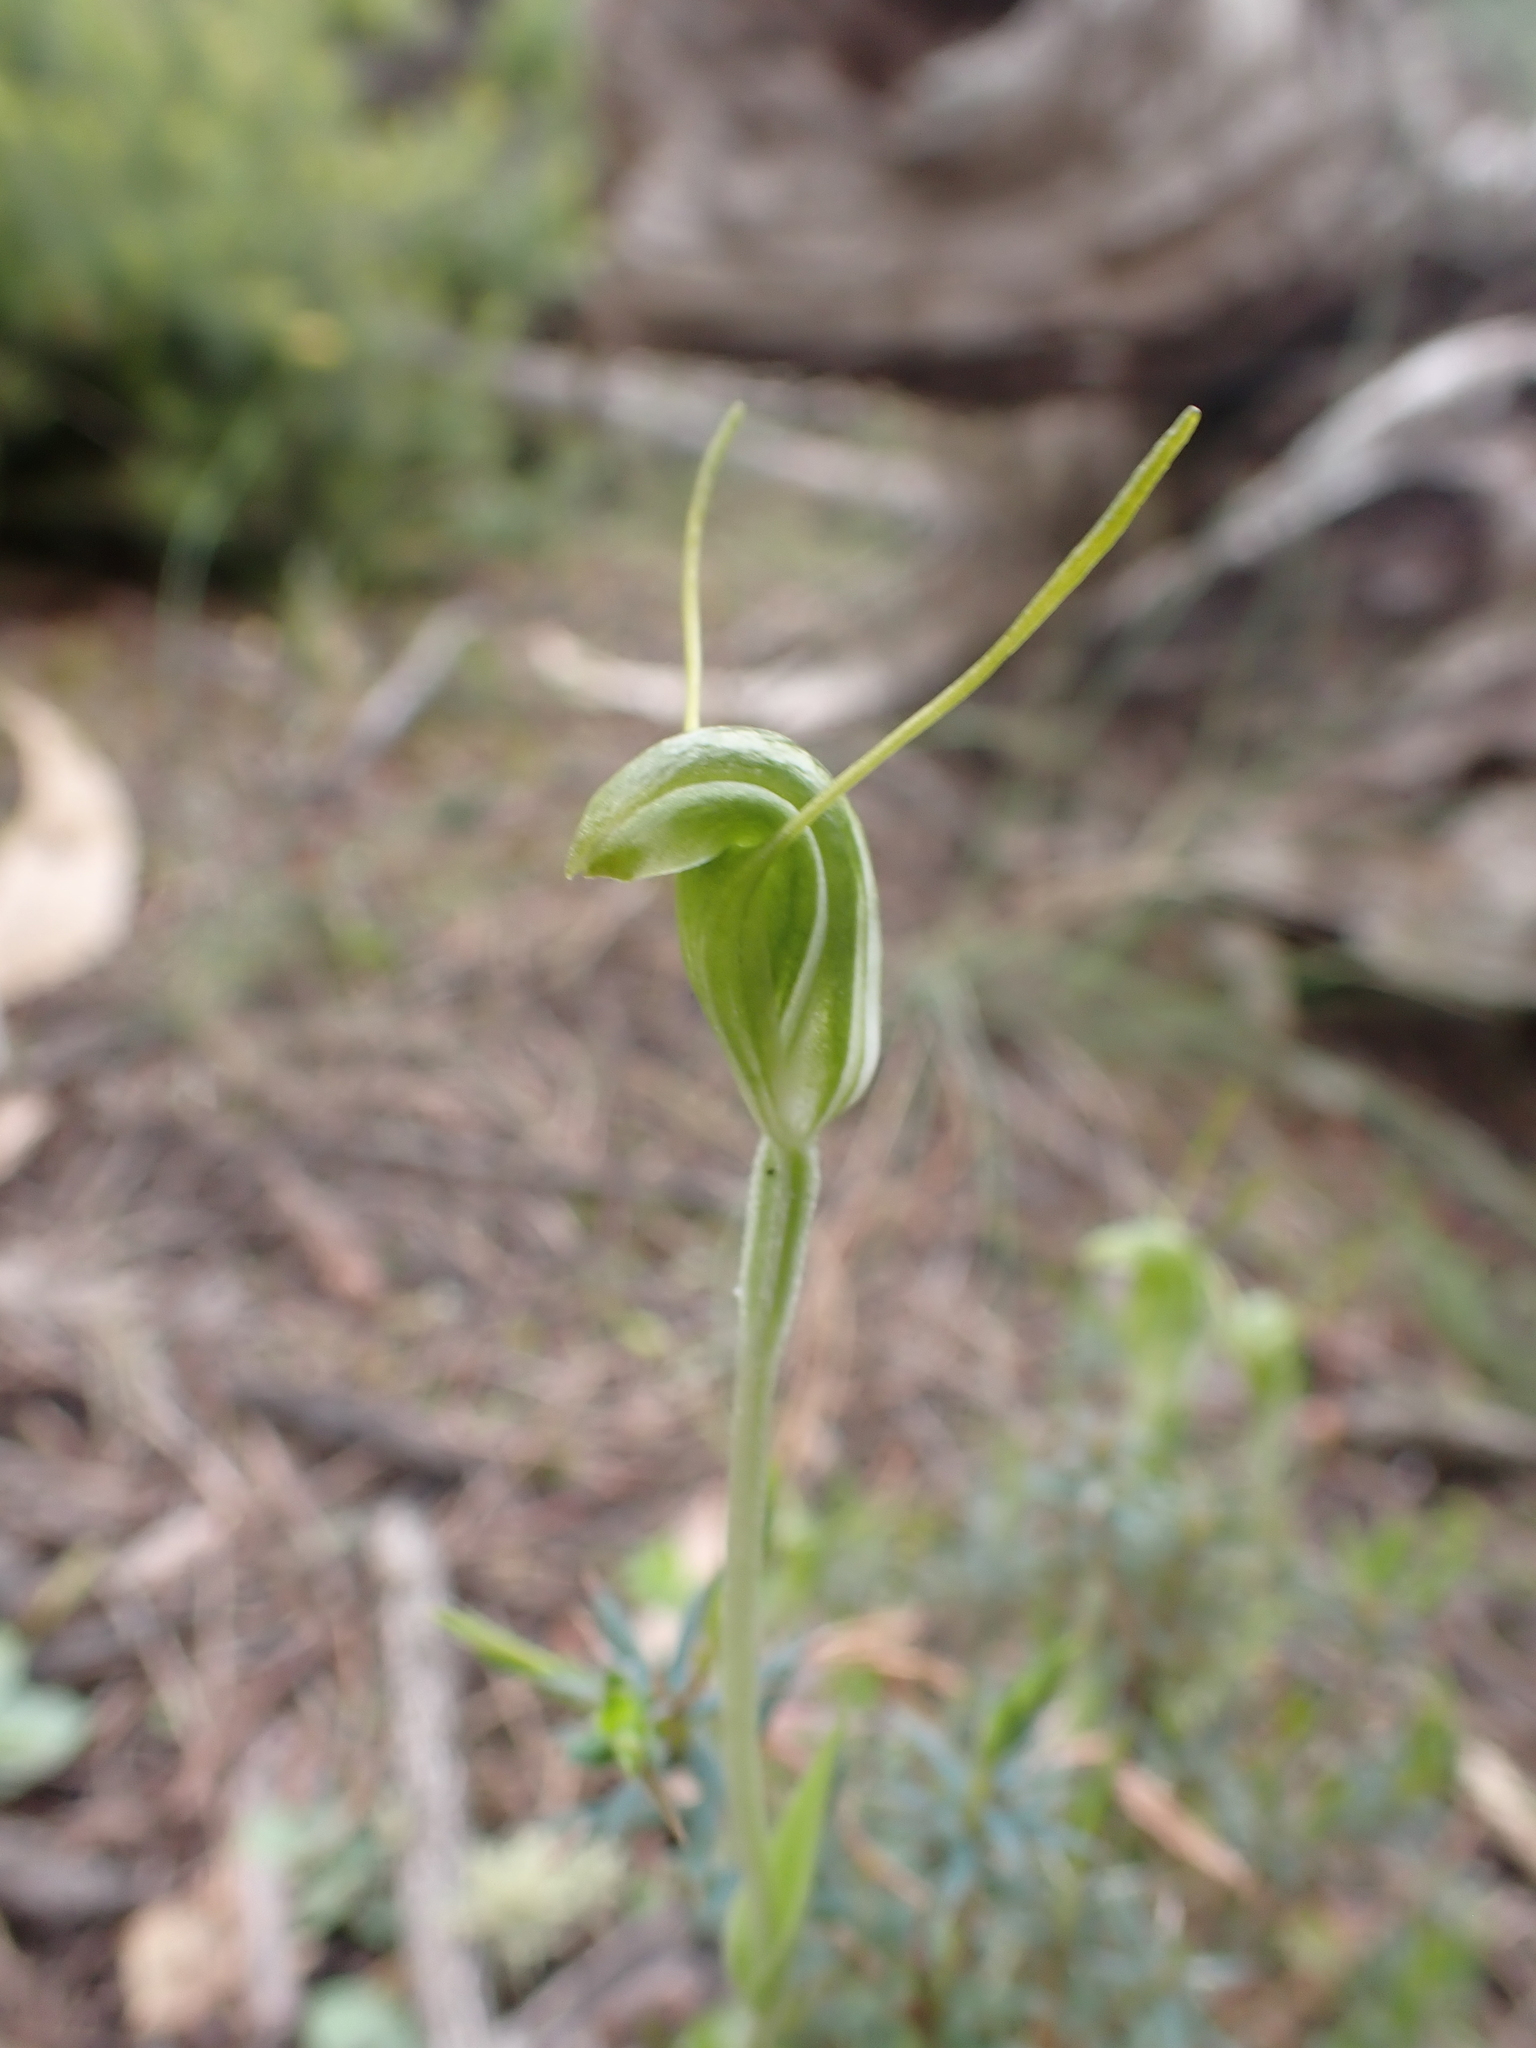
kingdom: Plantae
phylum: Tracheophyta
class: Liliopsida
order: Asparagales
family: Orchidaceae
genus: Pterostylis
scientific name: Pterostylis nana
